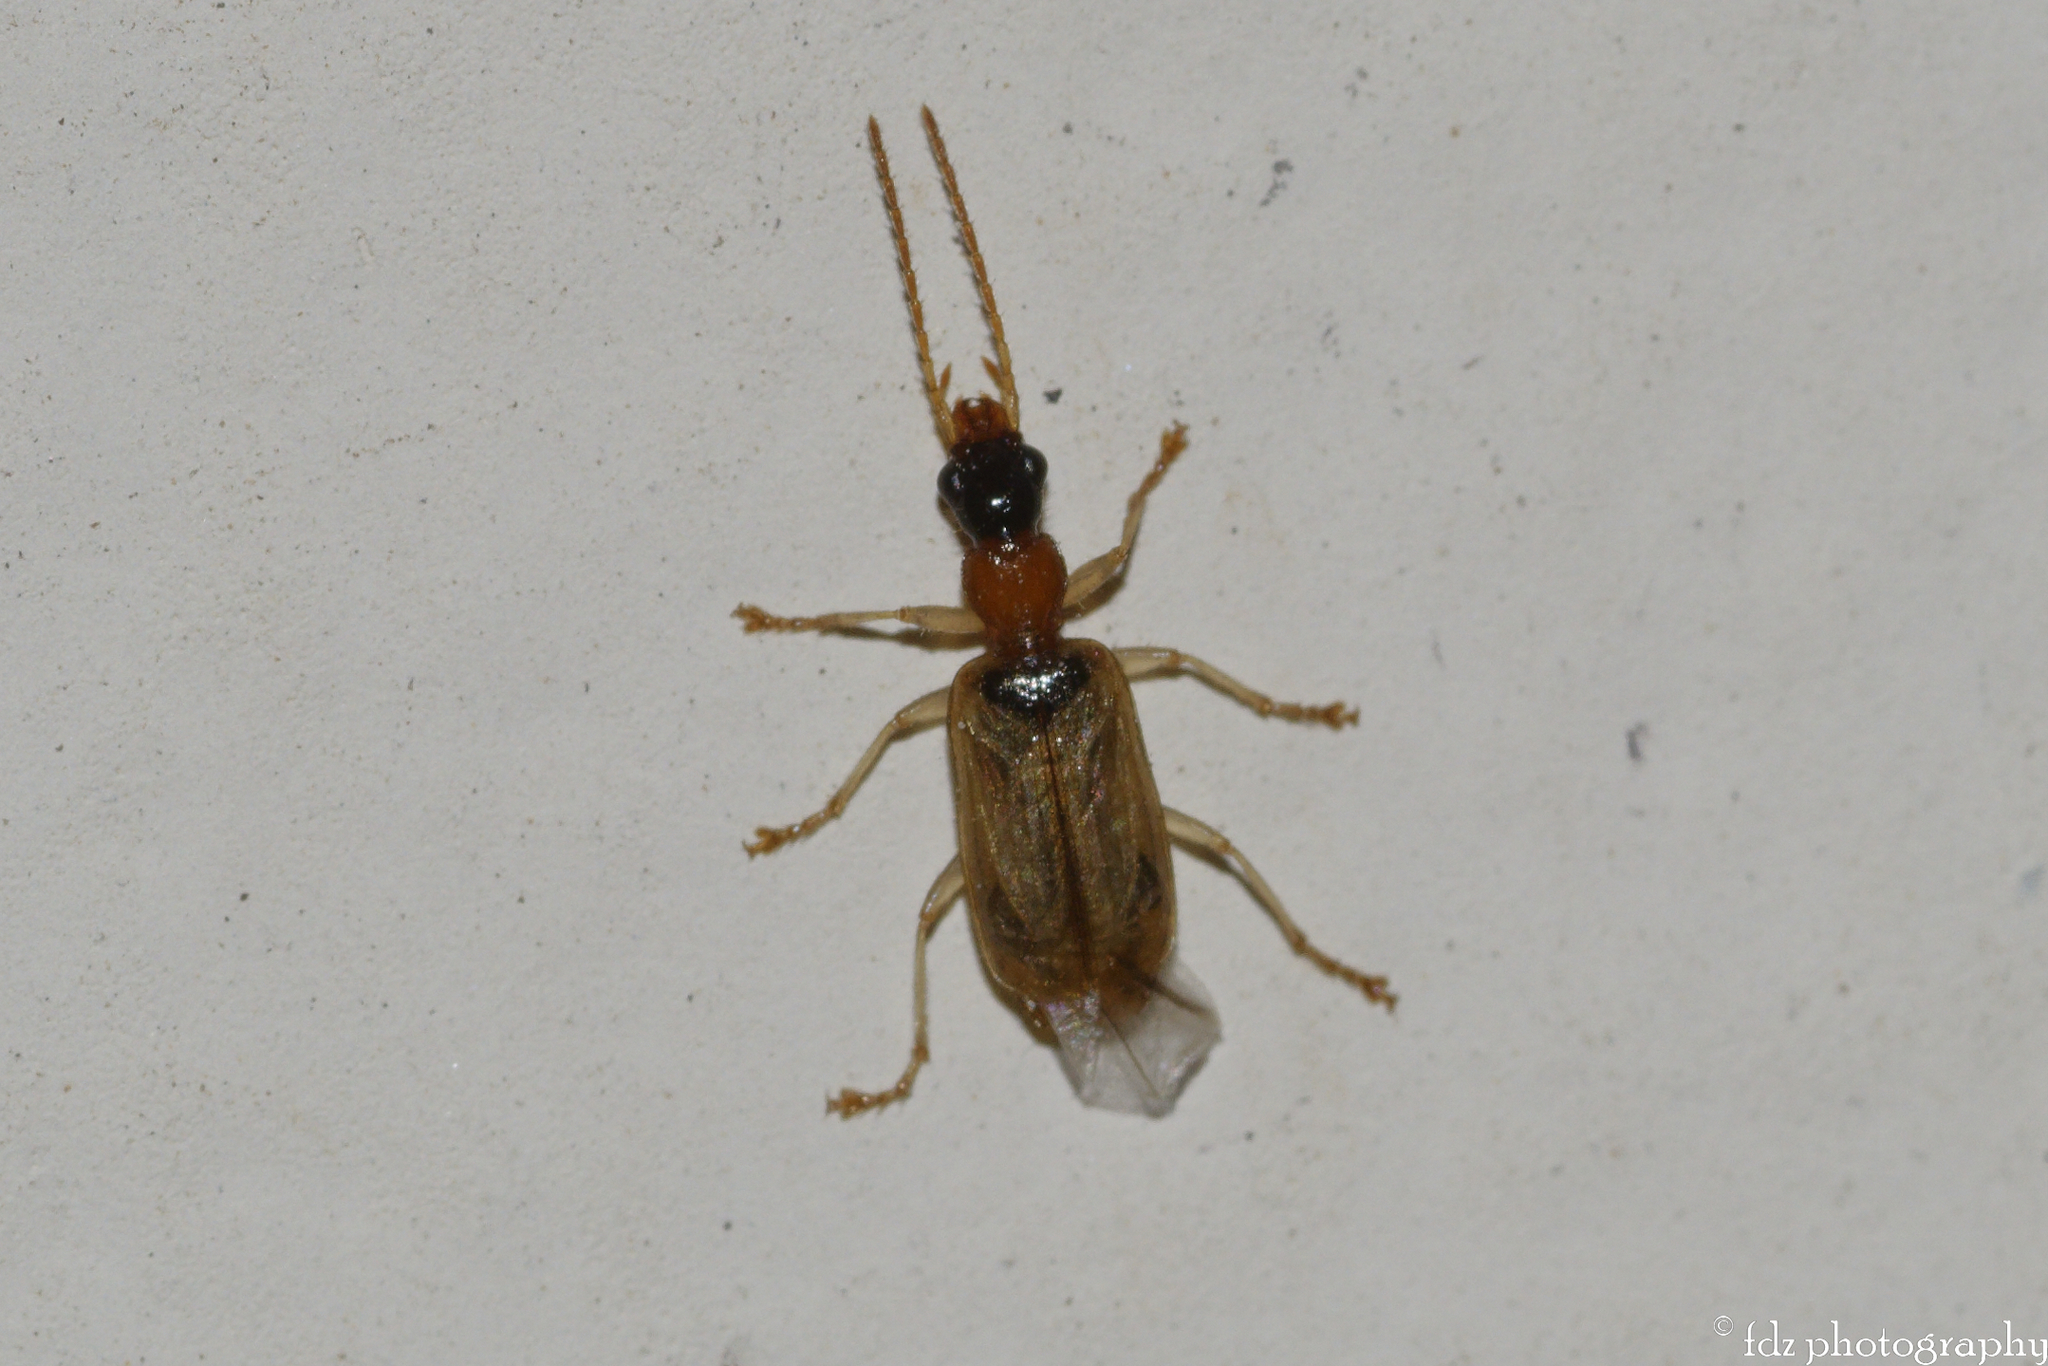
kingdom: Animalia
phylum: Arthropoda
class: Insecta
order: Coleoptera
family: Carabidae
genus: Demetrias
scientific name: Demetrias atricapillus
